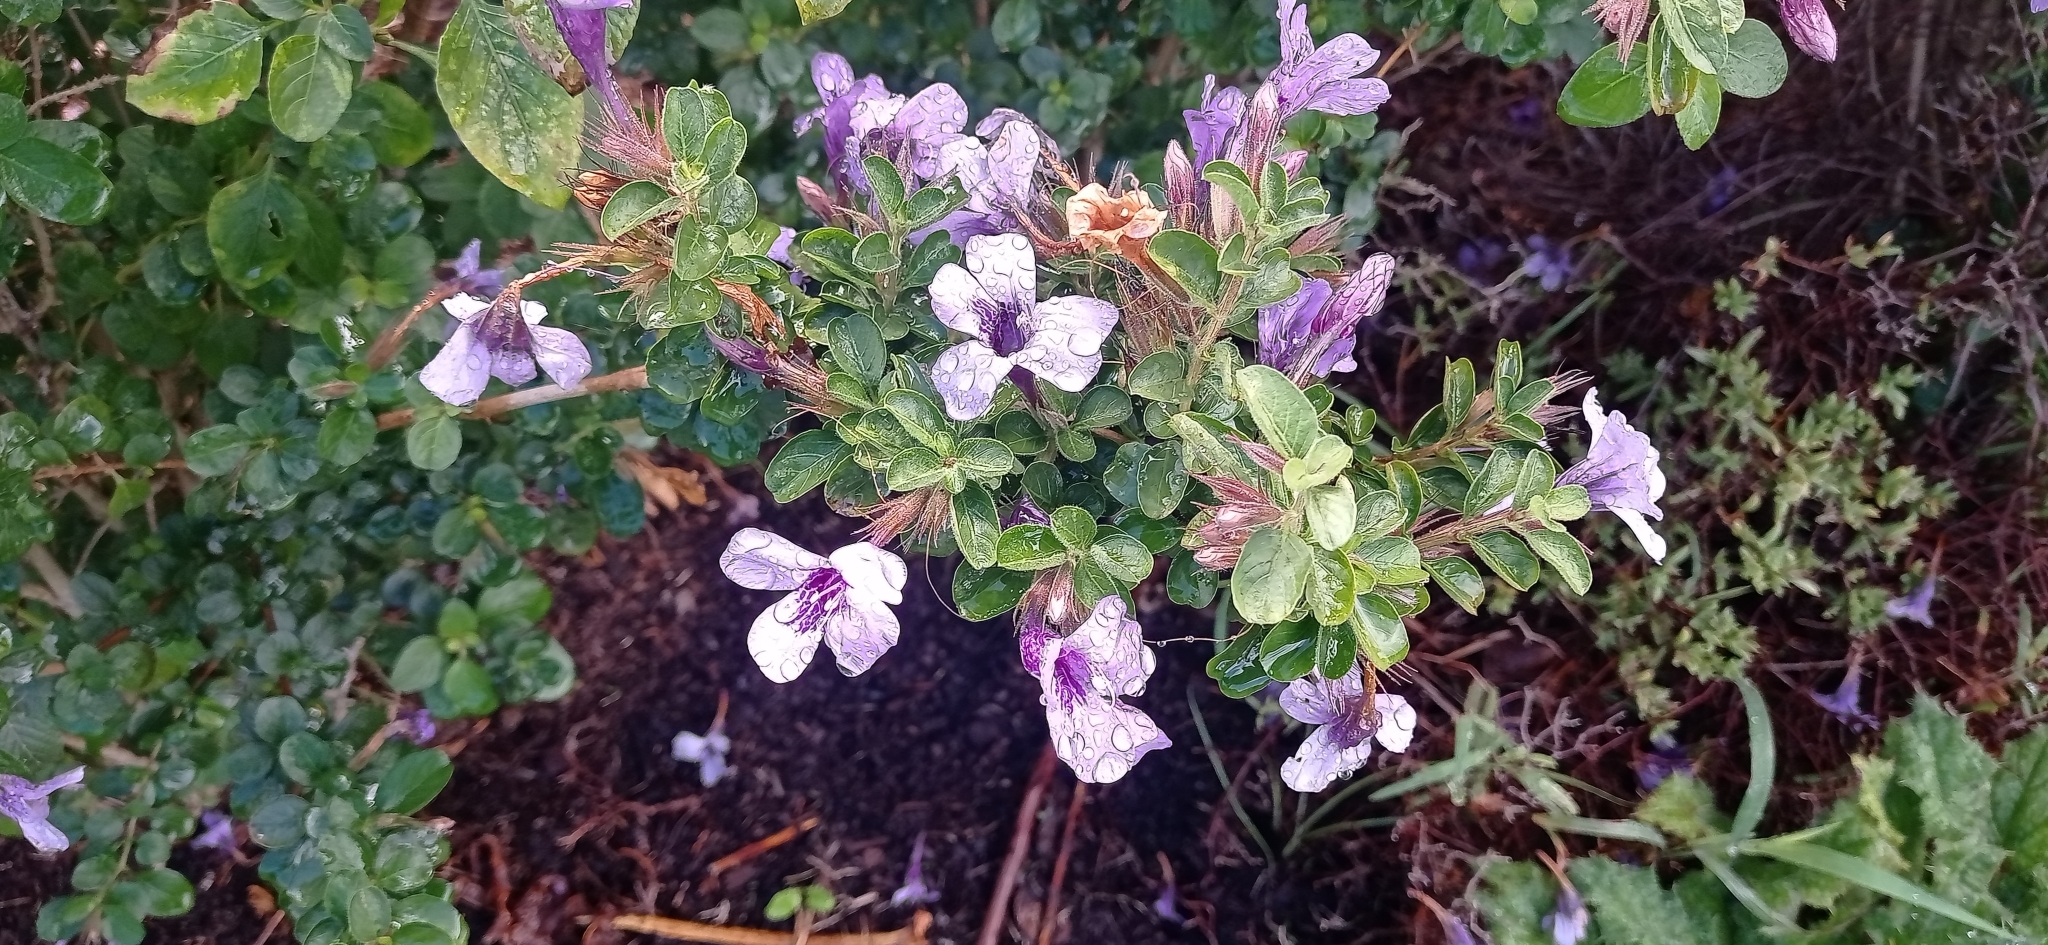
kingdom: Plantae
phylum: Tracheophyta
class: Magnoliopsida
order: Lamiales
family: Acanthaceae
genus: Dyschoriste
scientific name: Dyschoriste thunbergiiflora
